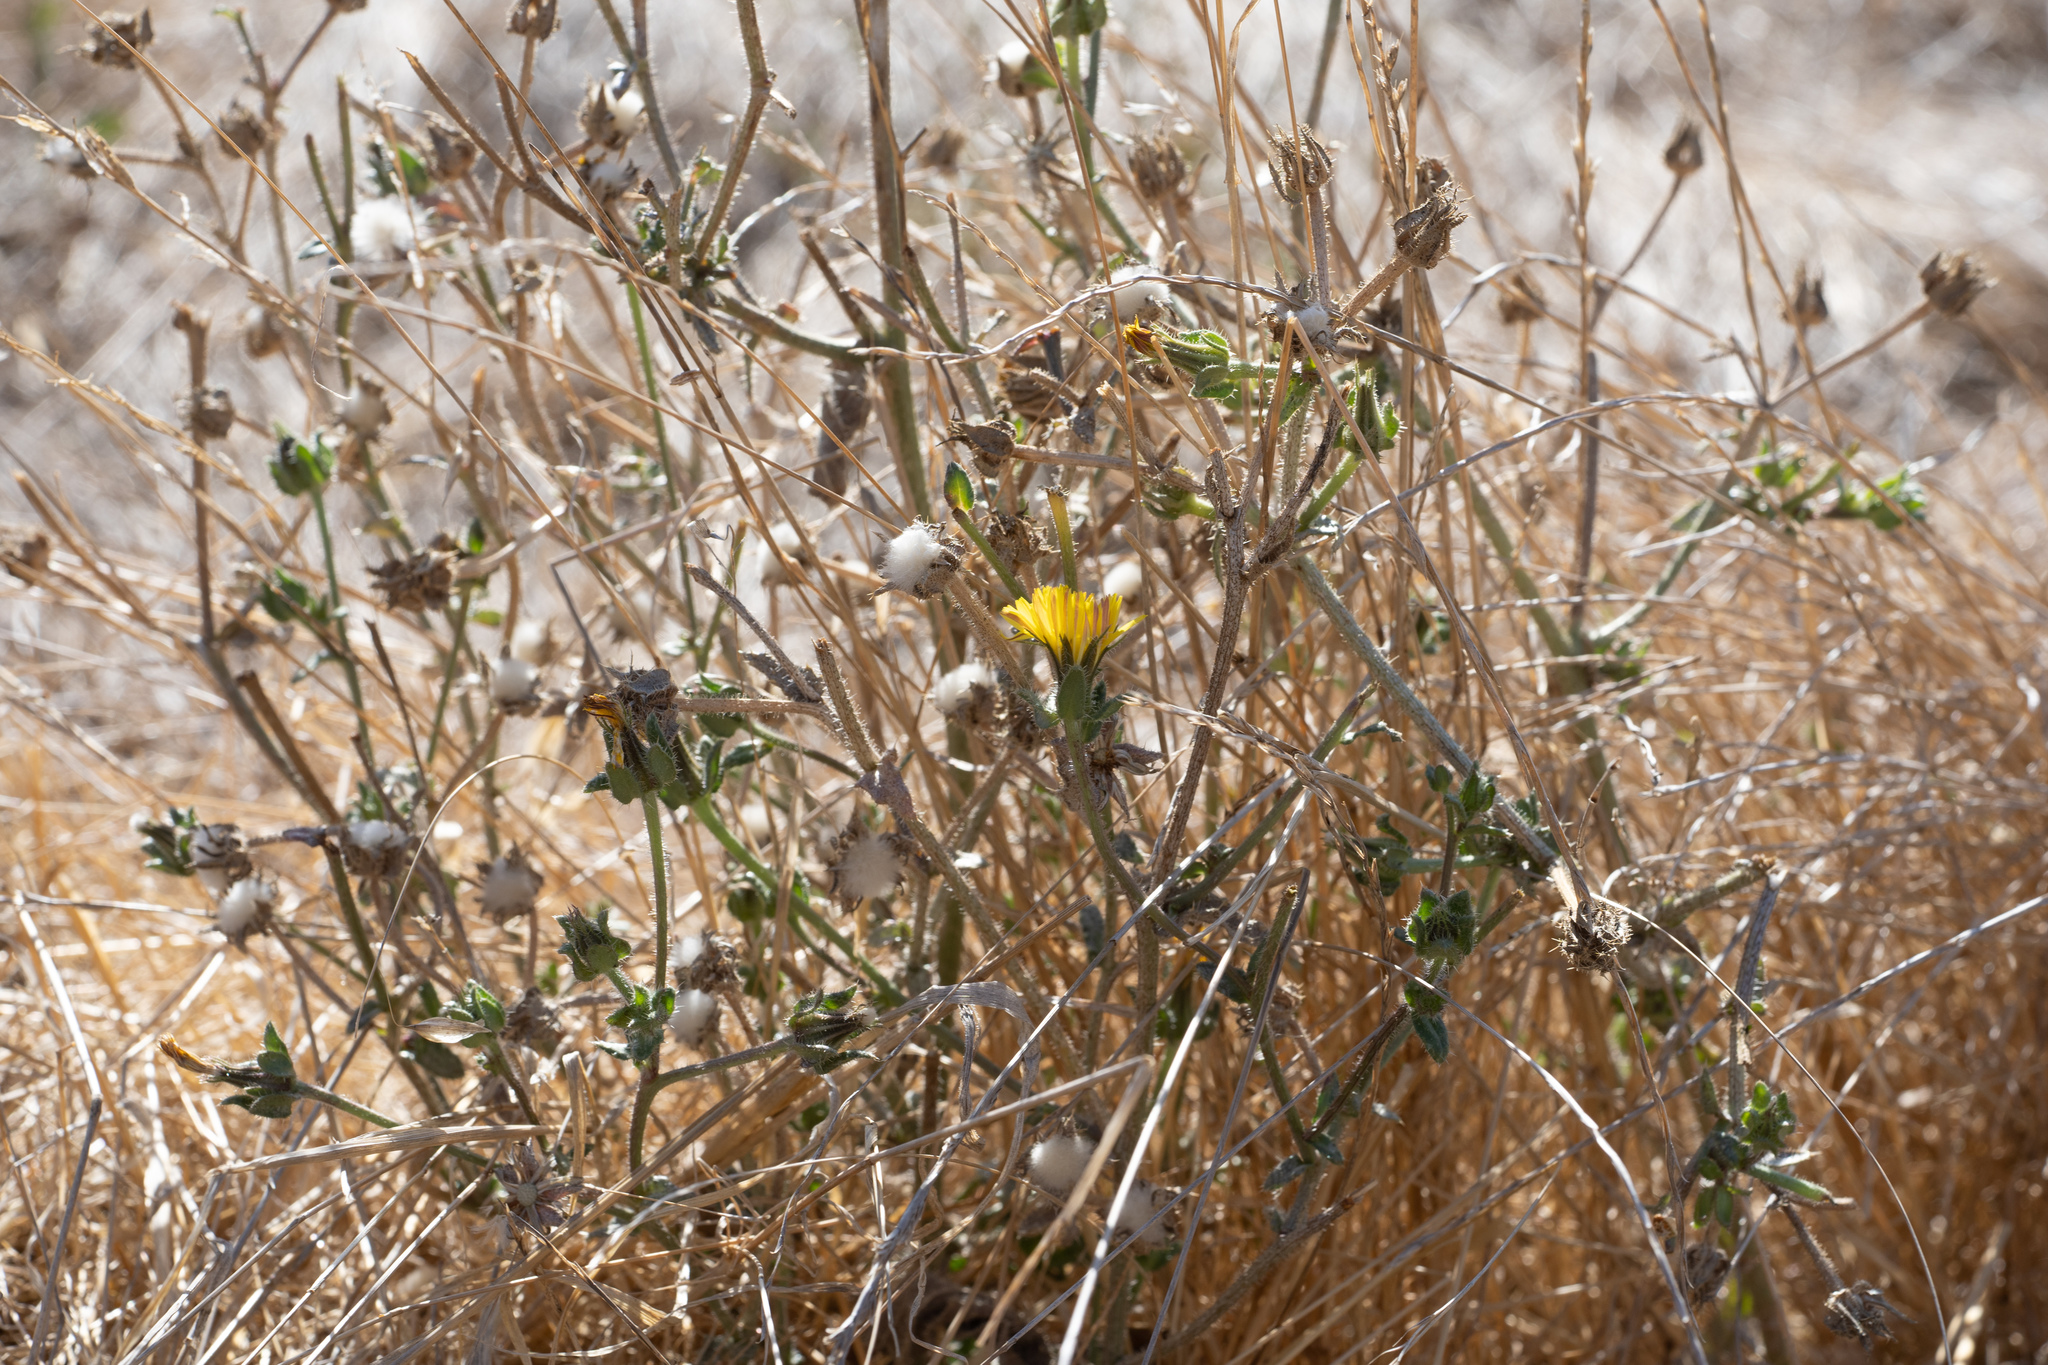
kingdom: Plantae
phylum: Tracheophyta
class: Magnoliopsida
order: Asterales
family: Asteraceae
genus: Helminthotheca
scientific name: Helminthotheca echioides
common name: Ox-tongue
